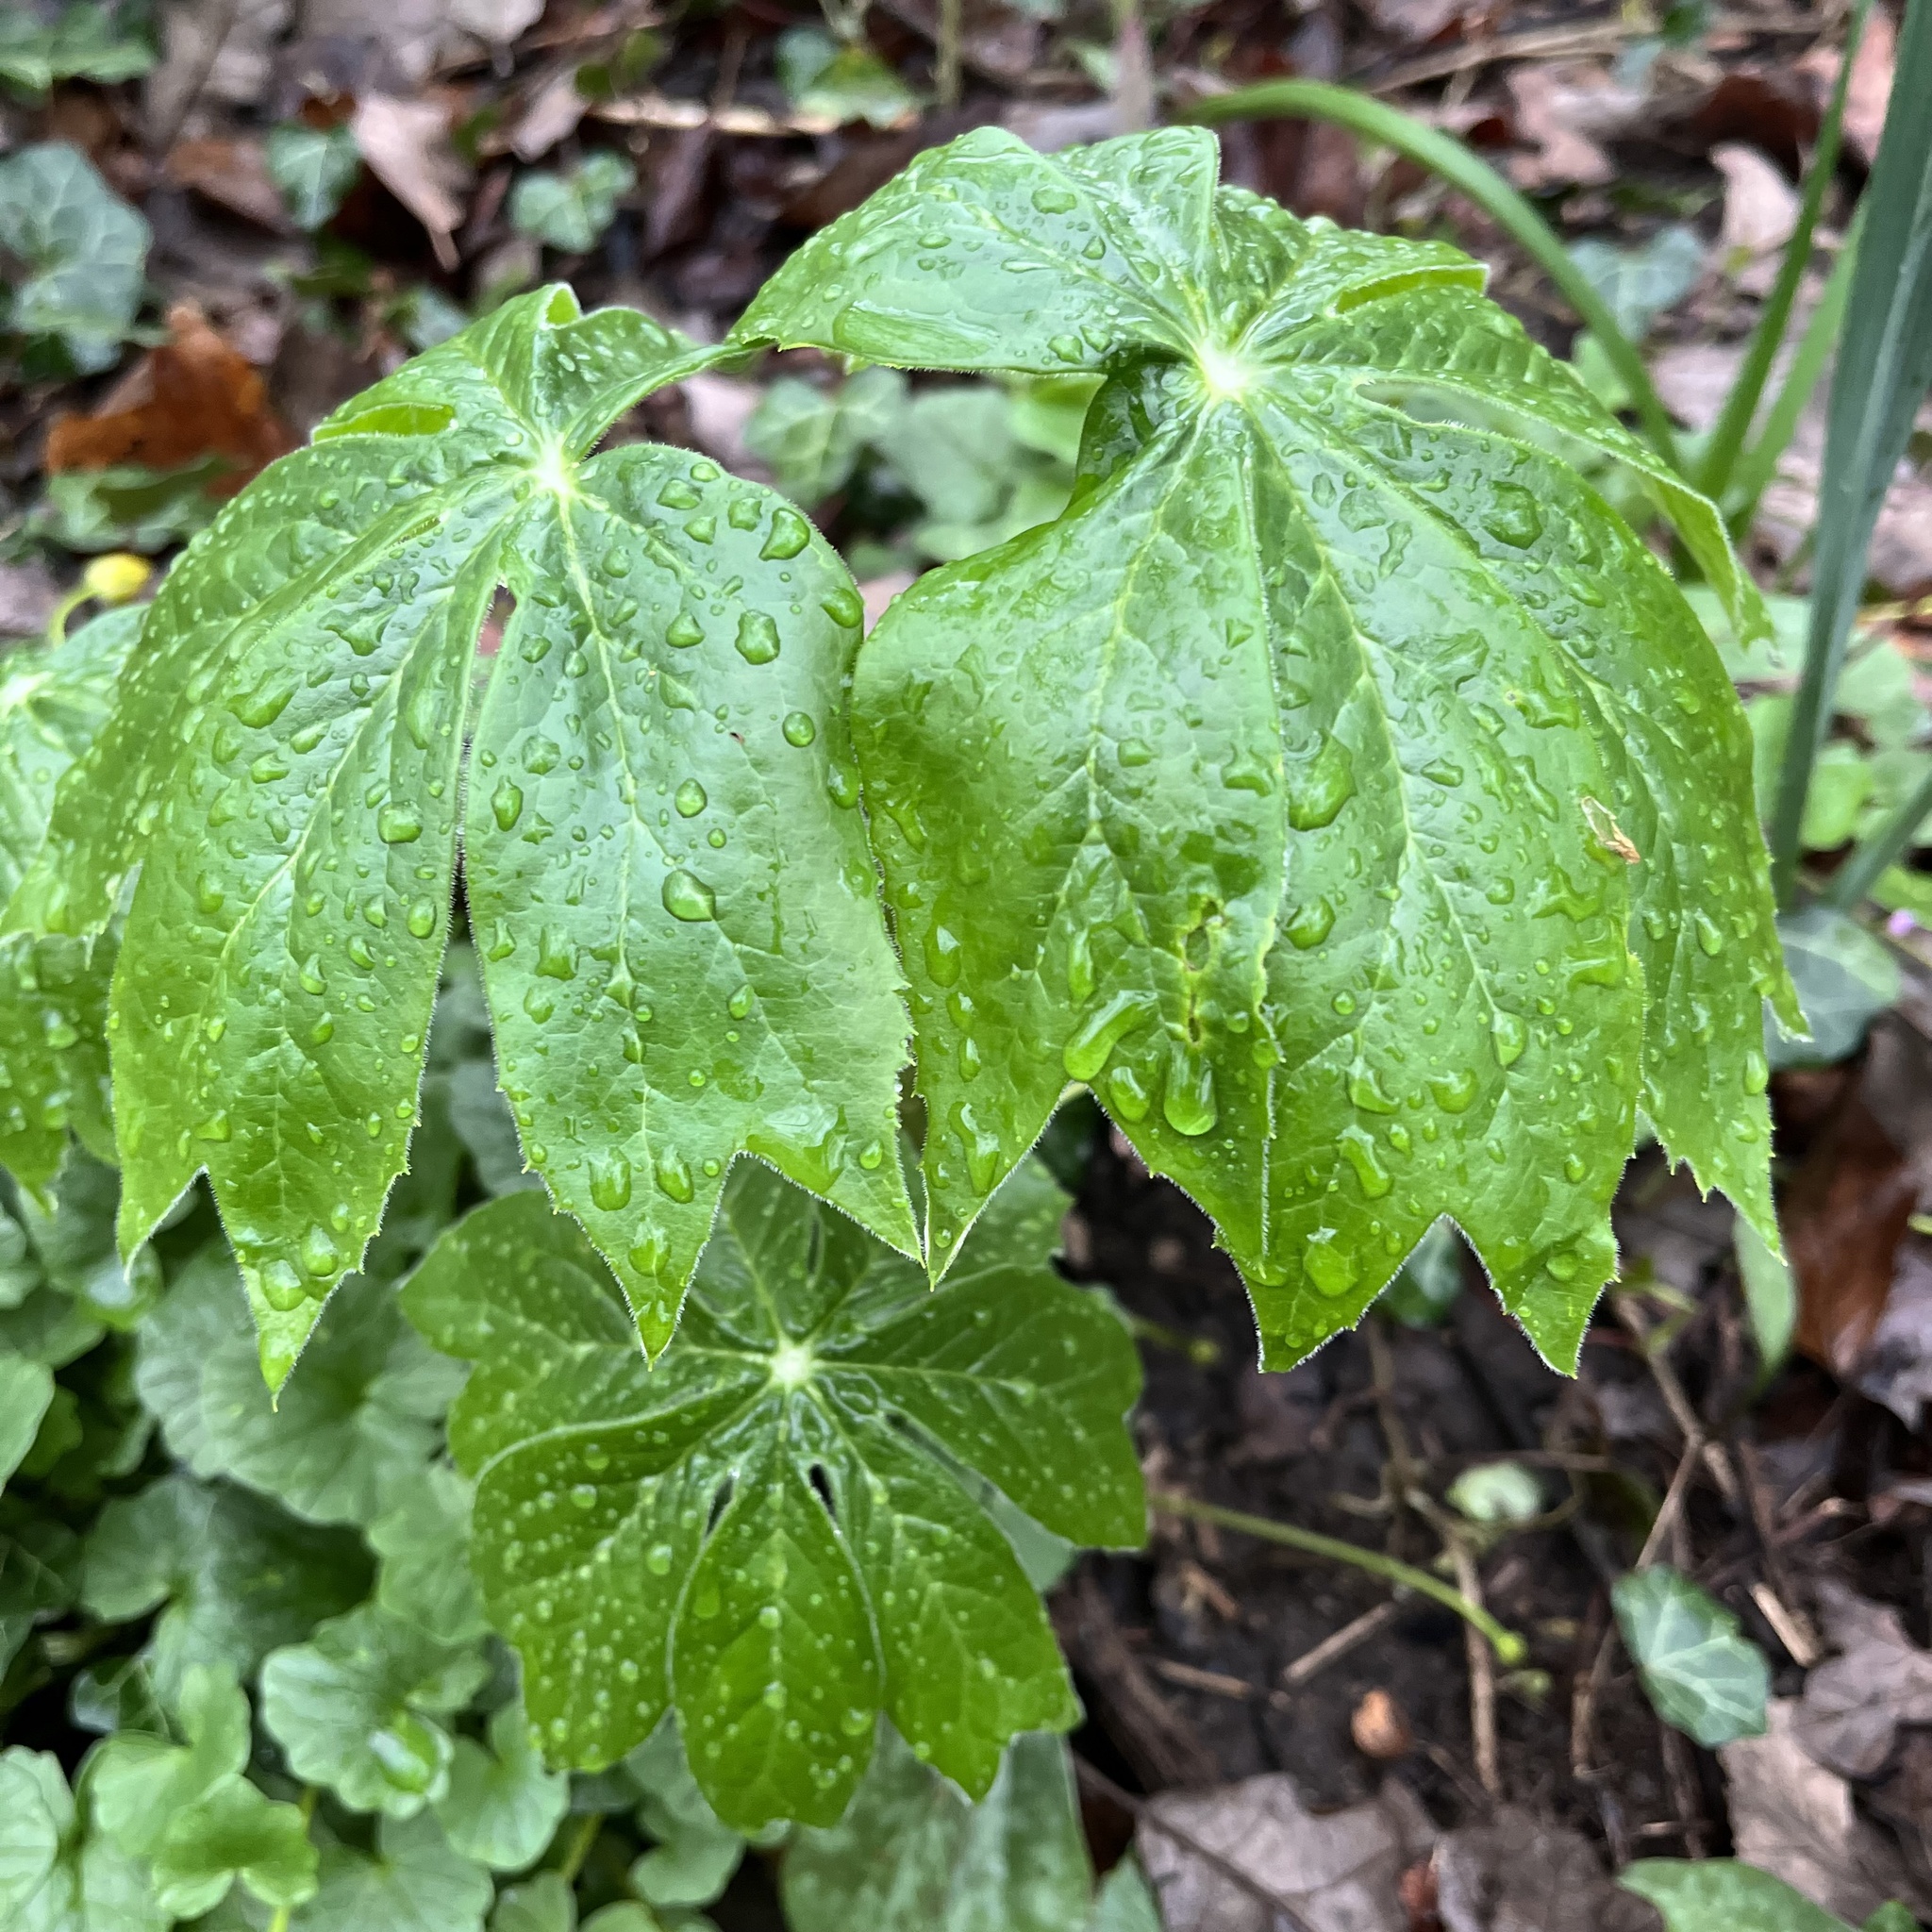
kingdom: Plantae
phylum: Tracheophyta
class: Magnoliopsida
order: Ranunculales
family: Berberidaceae
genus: Podophyllum
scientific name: Podophyllum peltatum
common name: Wild mandrake
